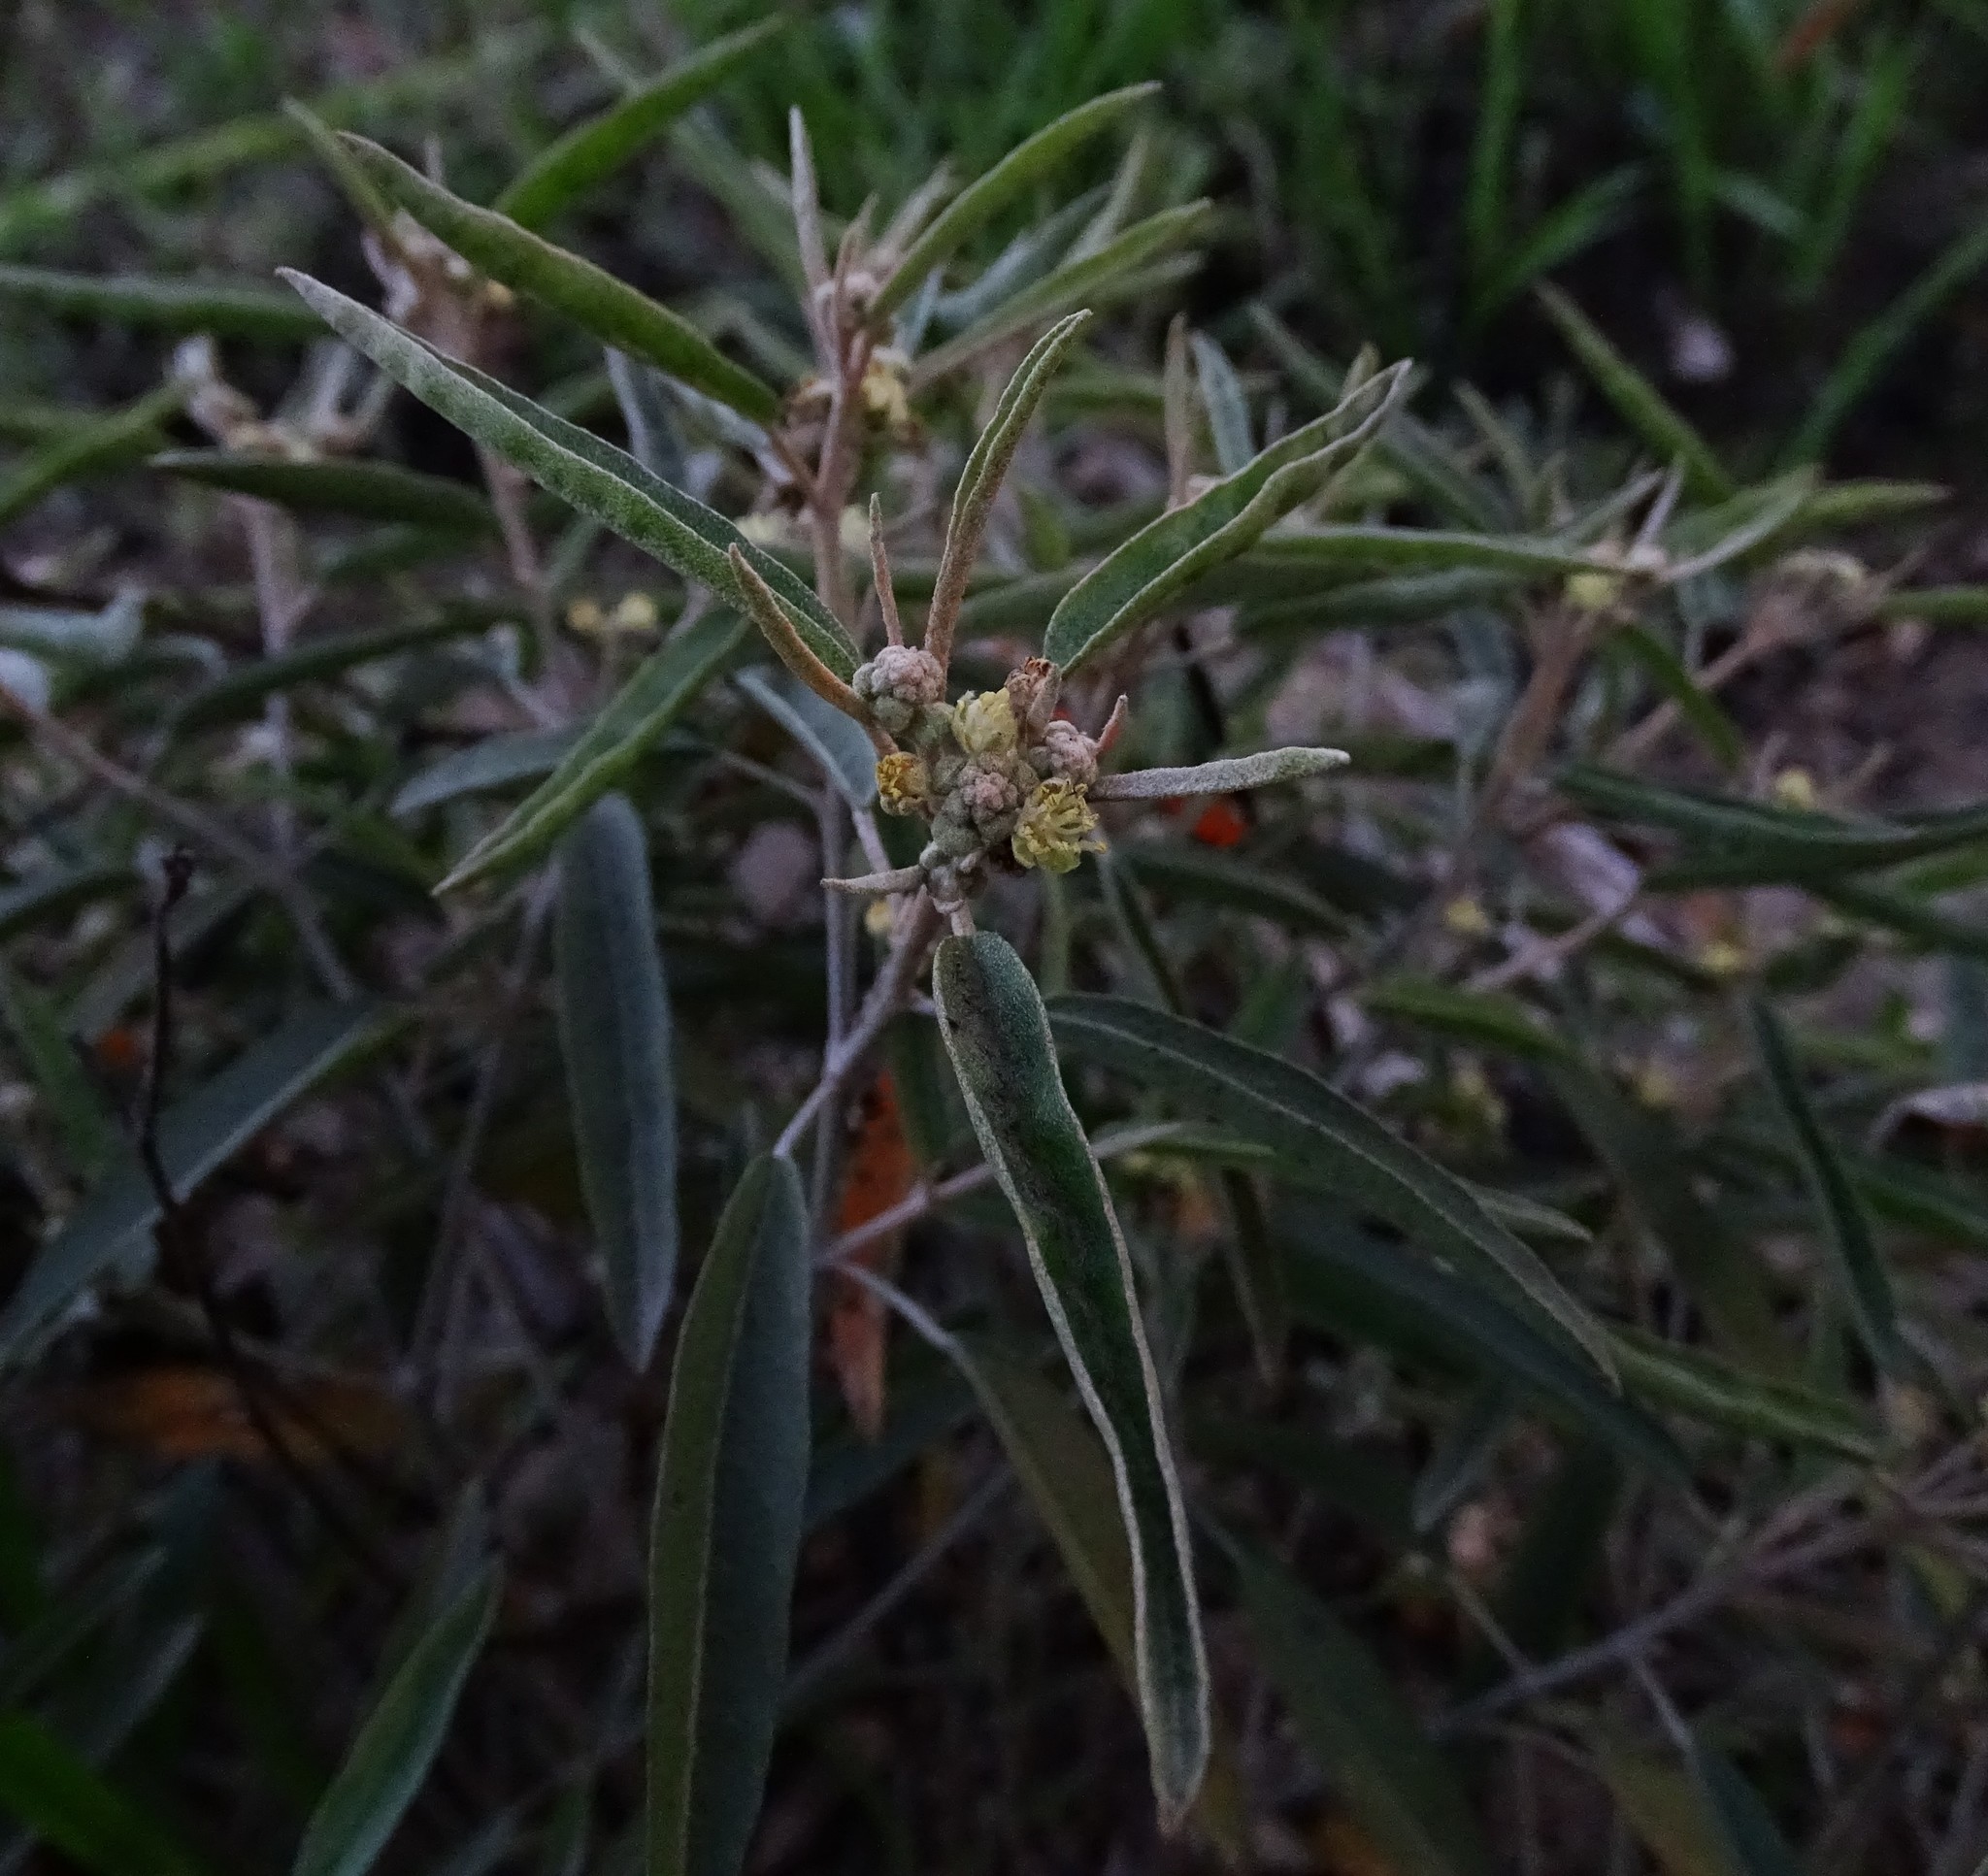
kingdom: Plantae
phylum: Tracheophyta
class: Magnoliopsida
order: Malpighiales
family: Euphorbiaceae
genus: Croton
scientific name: Croton californicus
